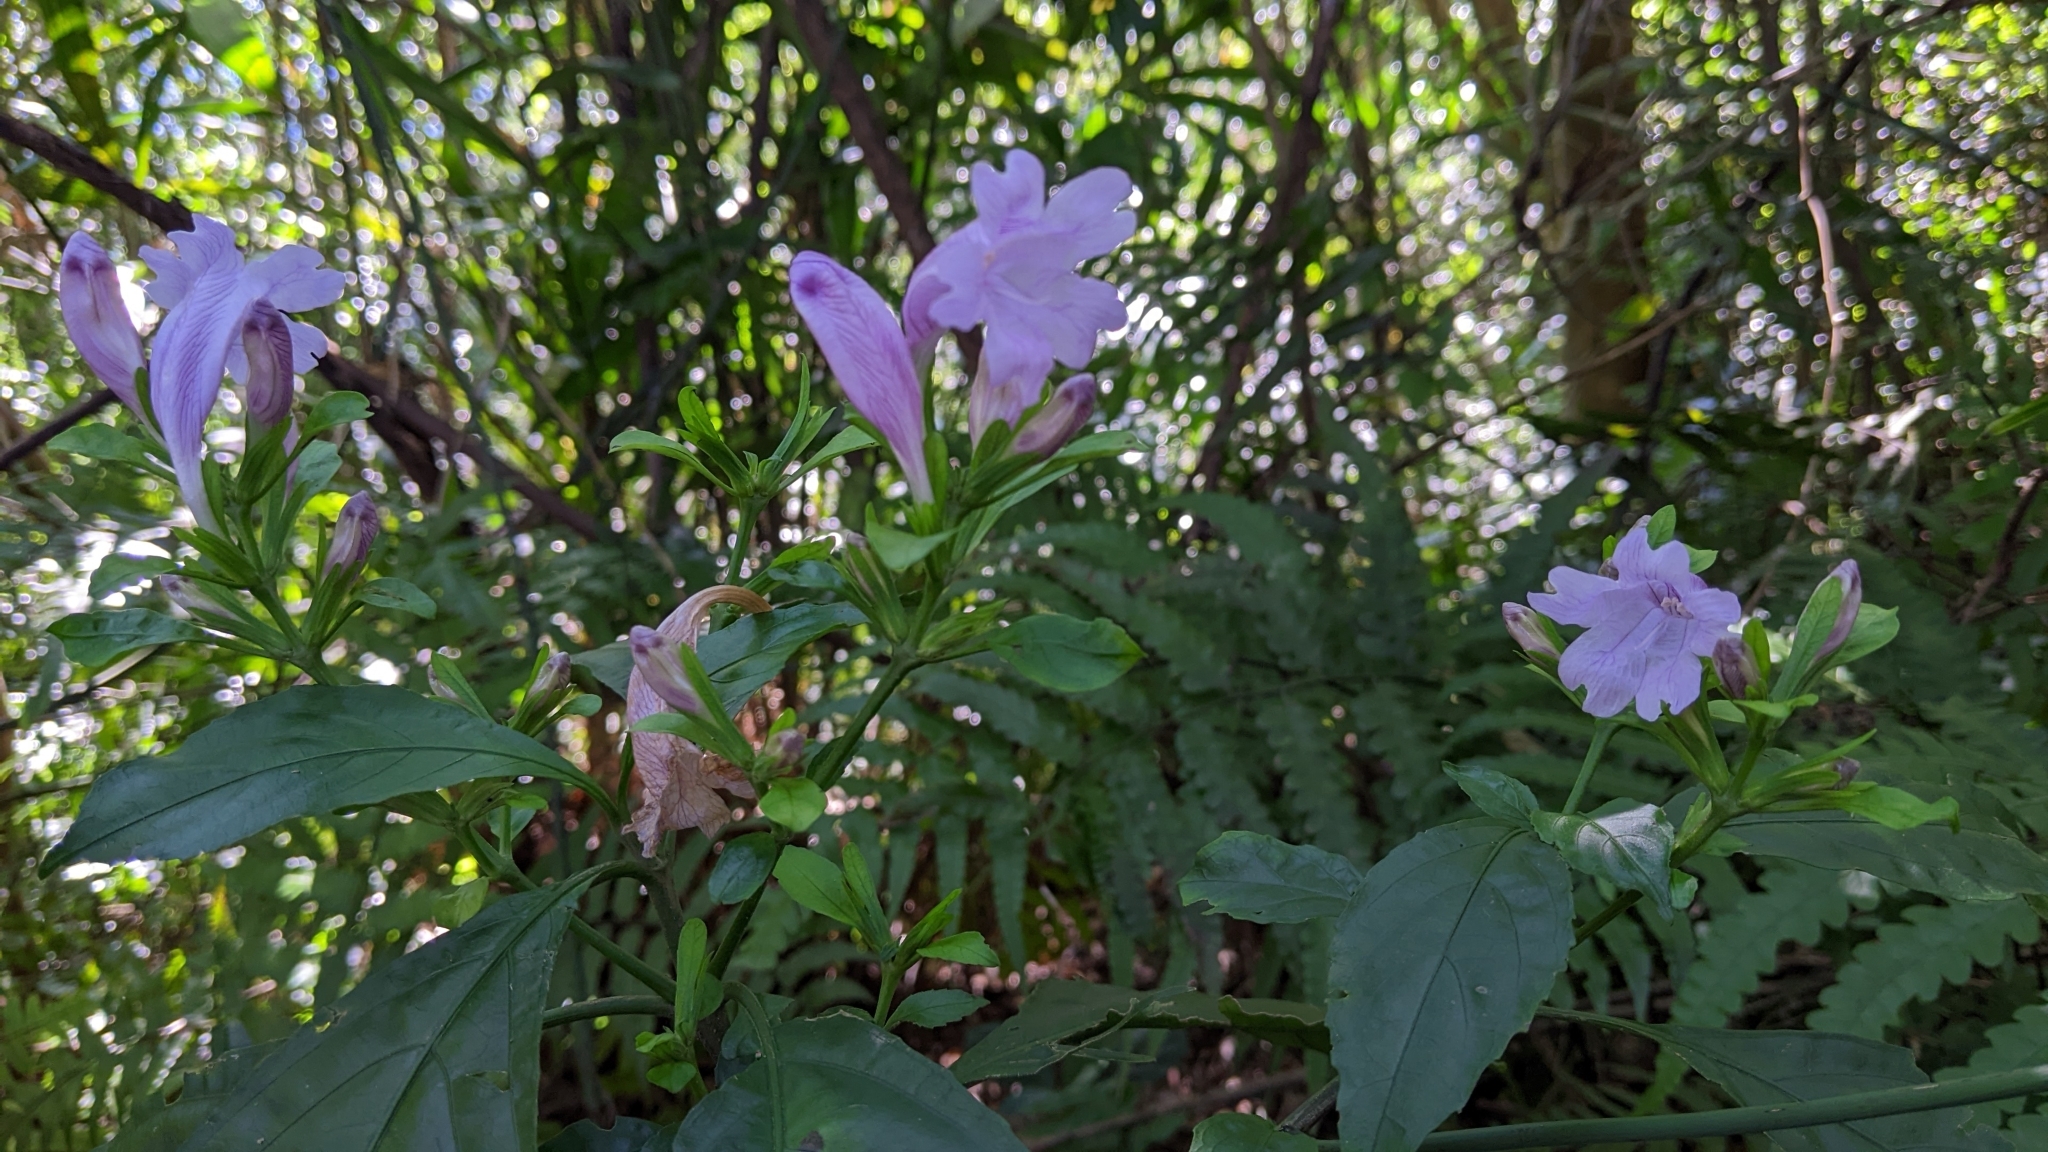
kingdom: Plantae
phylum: Tracheophyta
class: Magnoliopsida
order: Lamiales
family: Acanthaceae
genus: Strobilanthes
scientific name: Strobilanthes cusia
